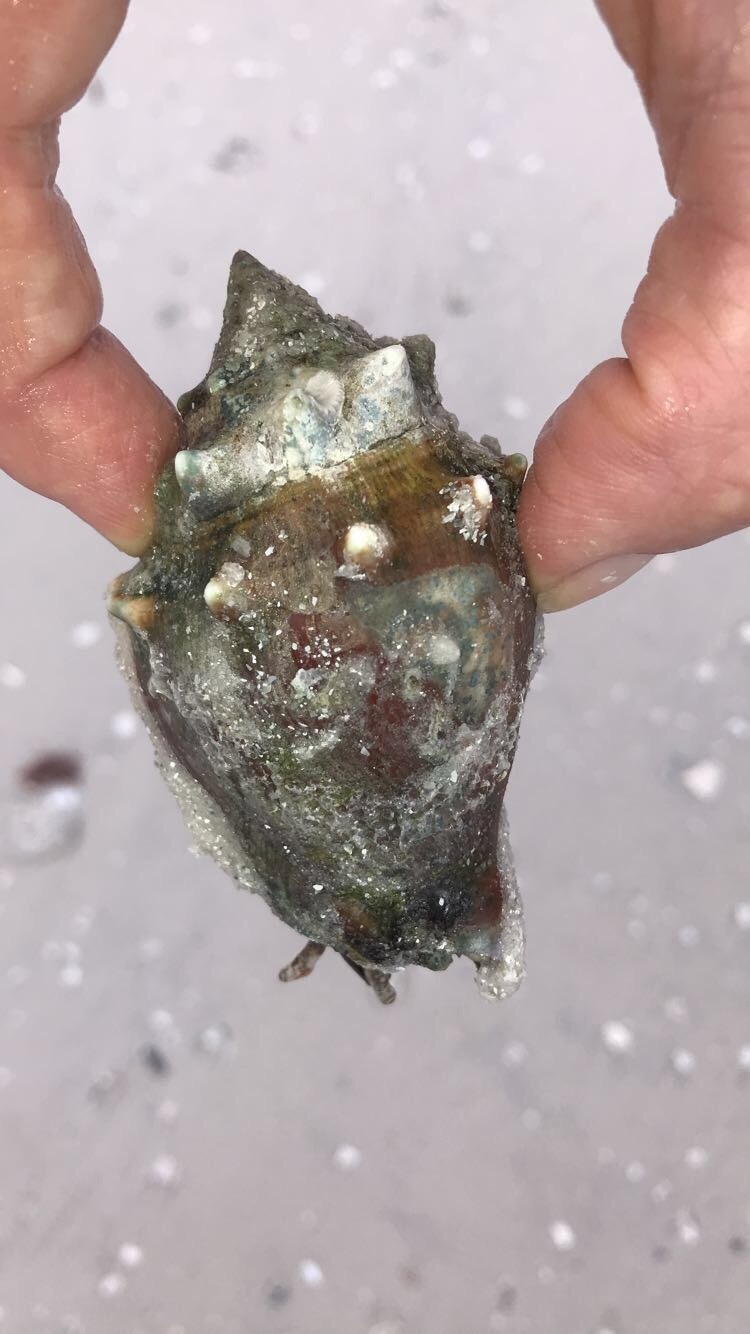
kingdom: Animalia
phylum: Mollusca
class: Gastropoda
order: Littorinimorpha
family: Strombidae
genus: Strombus
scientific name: Strombus alatus
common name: Florida fighting conch
